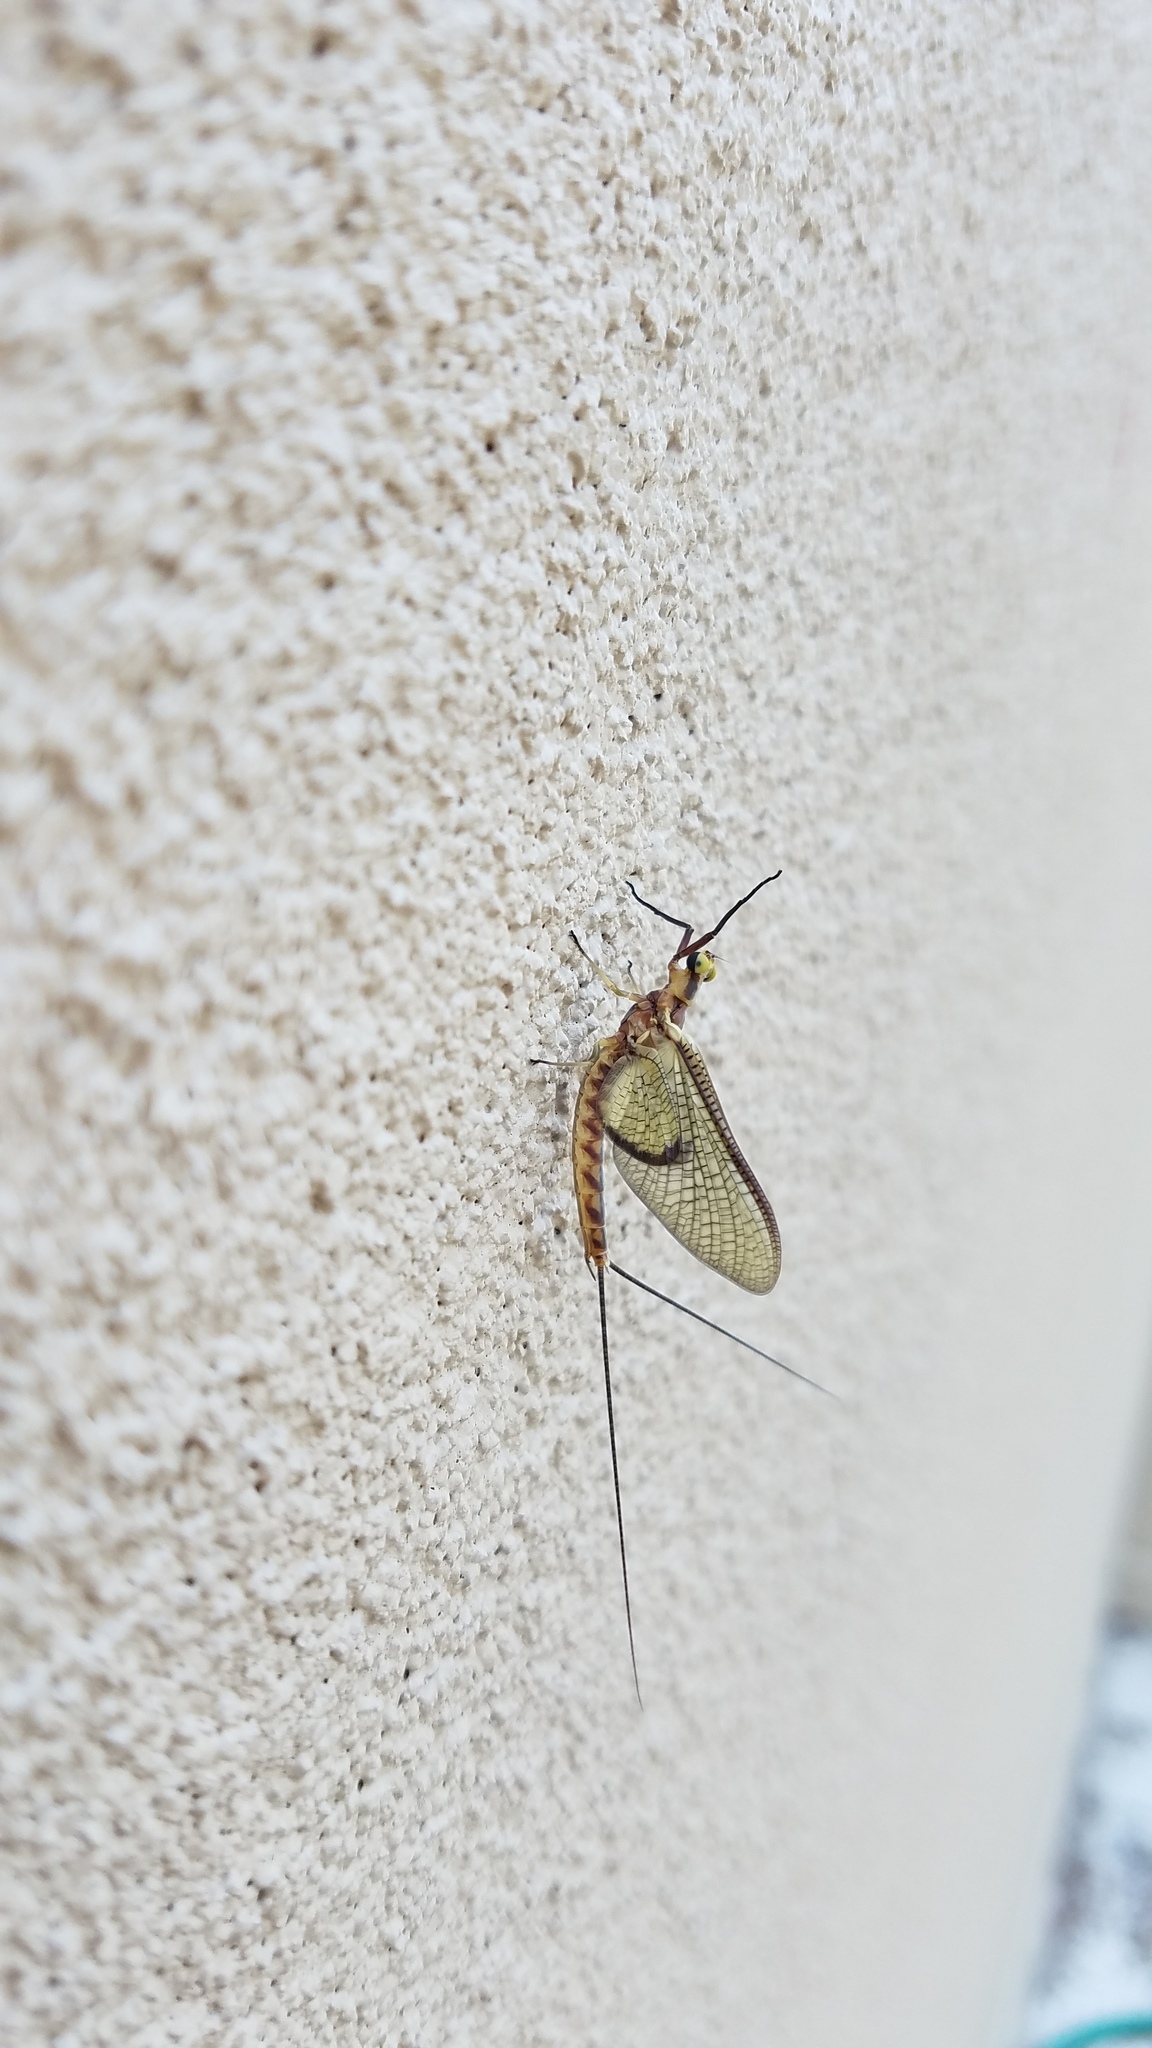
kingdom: Animalia
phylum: Arthropoda
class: Insecta
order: Ephemeroptera
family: Ephemeridae
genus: Hexagenia
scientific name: Hexagenia atrocaudata
